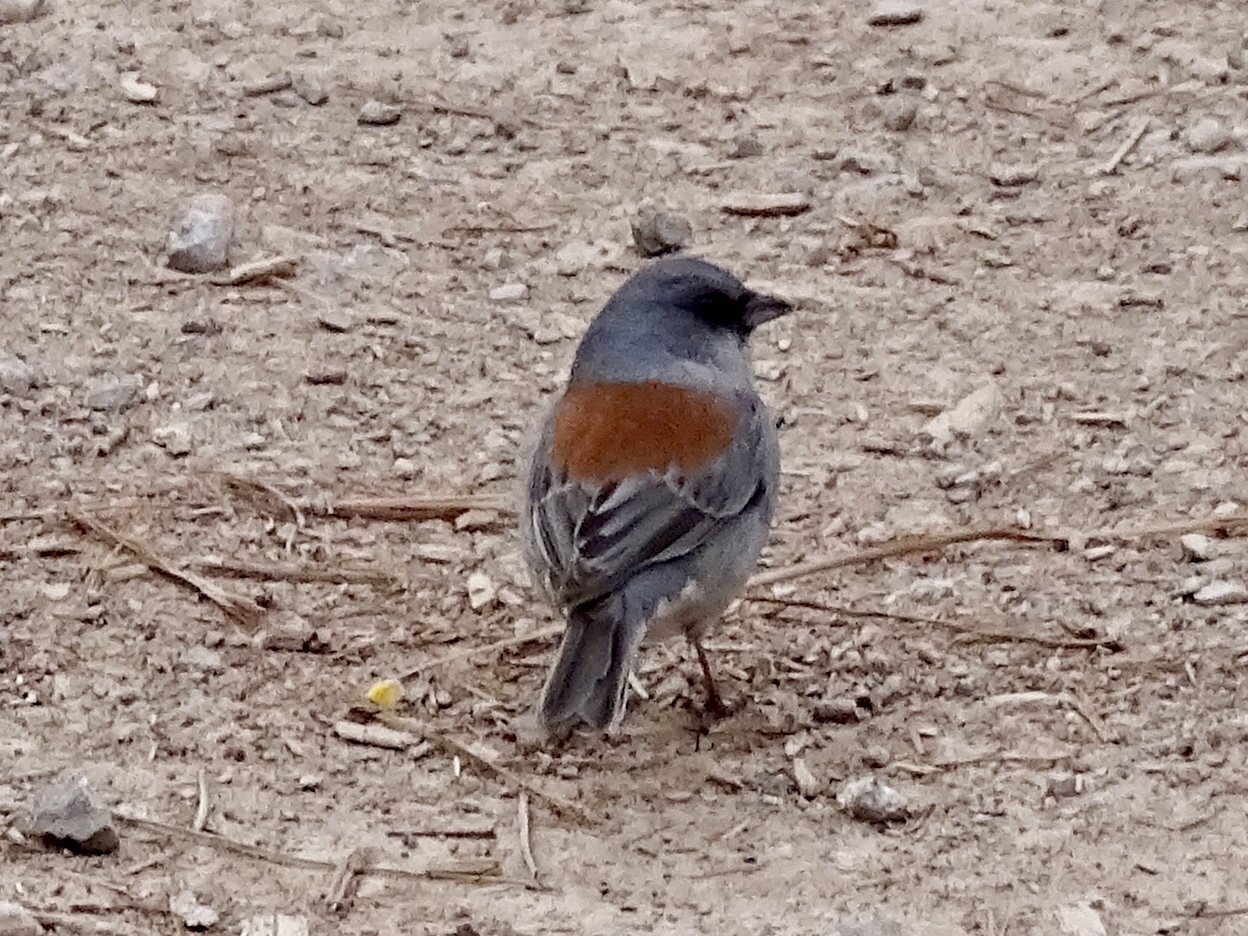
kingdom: Animalia
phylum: Chordata
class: Aves
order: Passeriformes
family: Passerellidae
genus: Junco
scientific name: Junco hyemalis
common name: Dark-eyed junco
